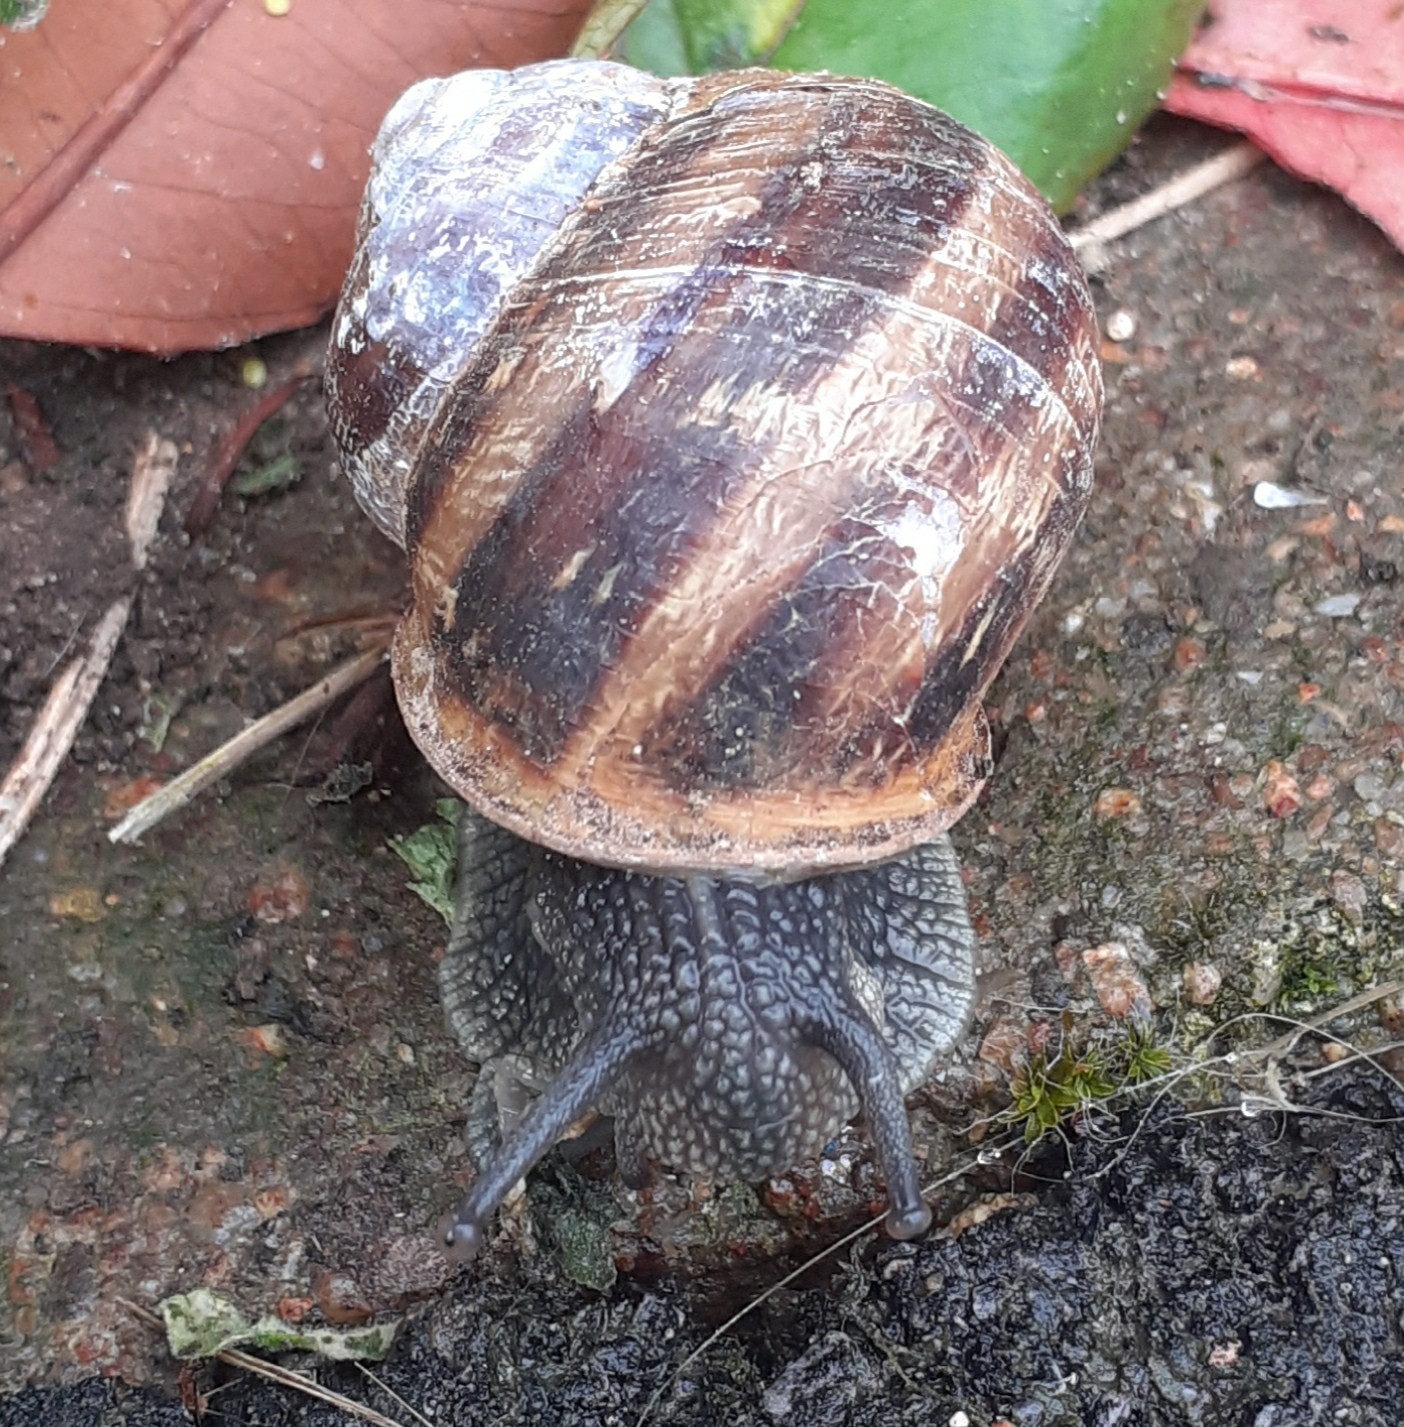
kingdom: Animalia
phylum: Mollusca
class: Gastropoda
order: Stylommatophora
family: Helicidae
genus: Cornu
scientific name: Cornu aspersum
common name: Brown garden snail
